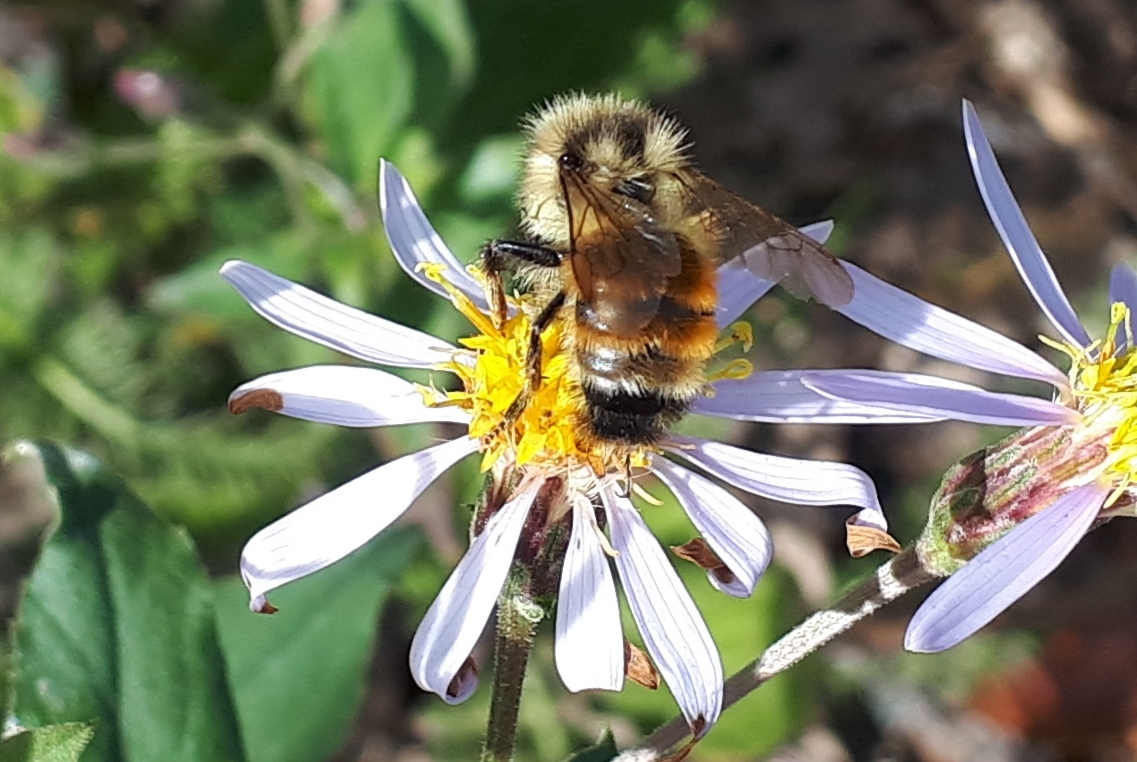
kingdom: Animalia
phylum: Arthropoda
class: Insecta
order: Hymenoptera
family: Apidae
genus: Bombus
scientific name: Bombus ternarius
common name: Tri-colored bumble bee
